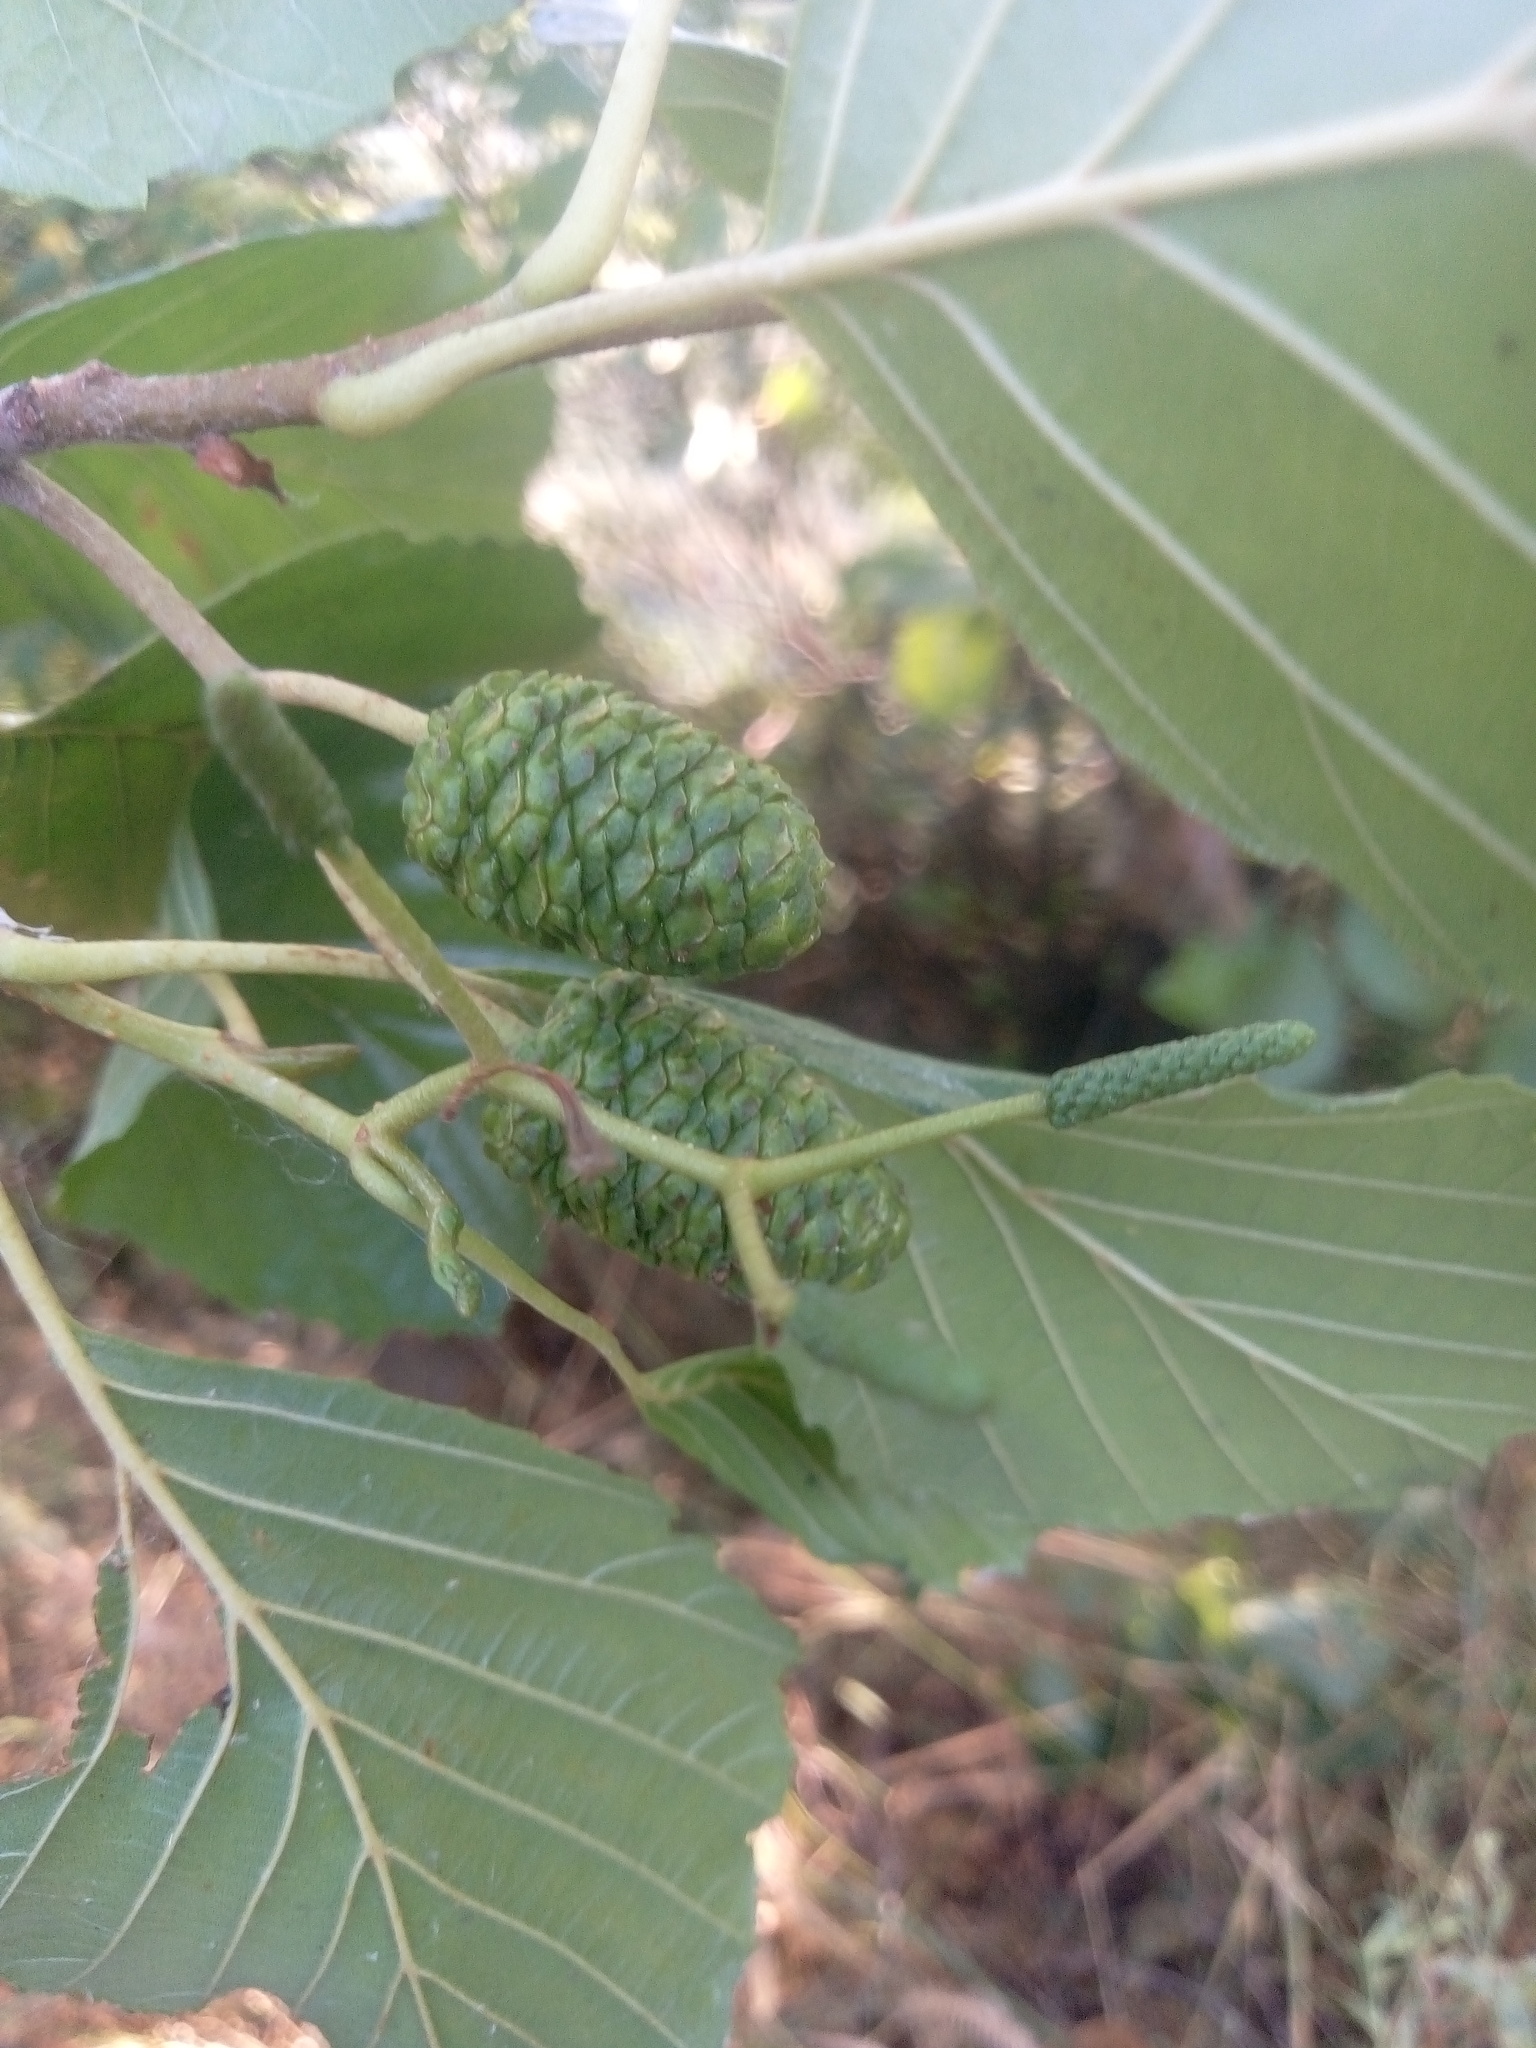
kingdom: Plantae
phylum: Tracheophyta
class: Magnoliopsida
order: Fagales
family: Betulaceae
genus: Alnus
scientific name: Alnus glutinosa
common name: Black alder
